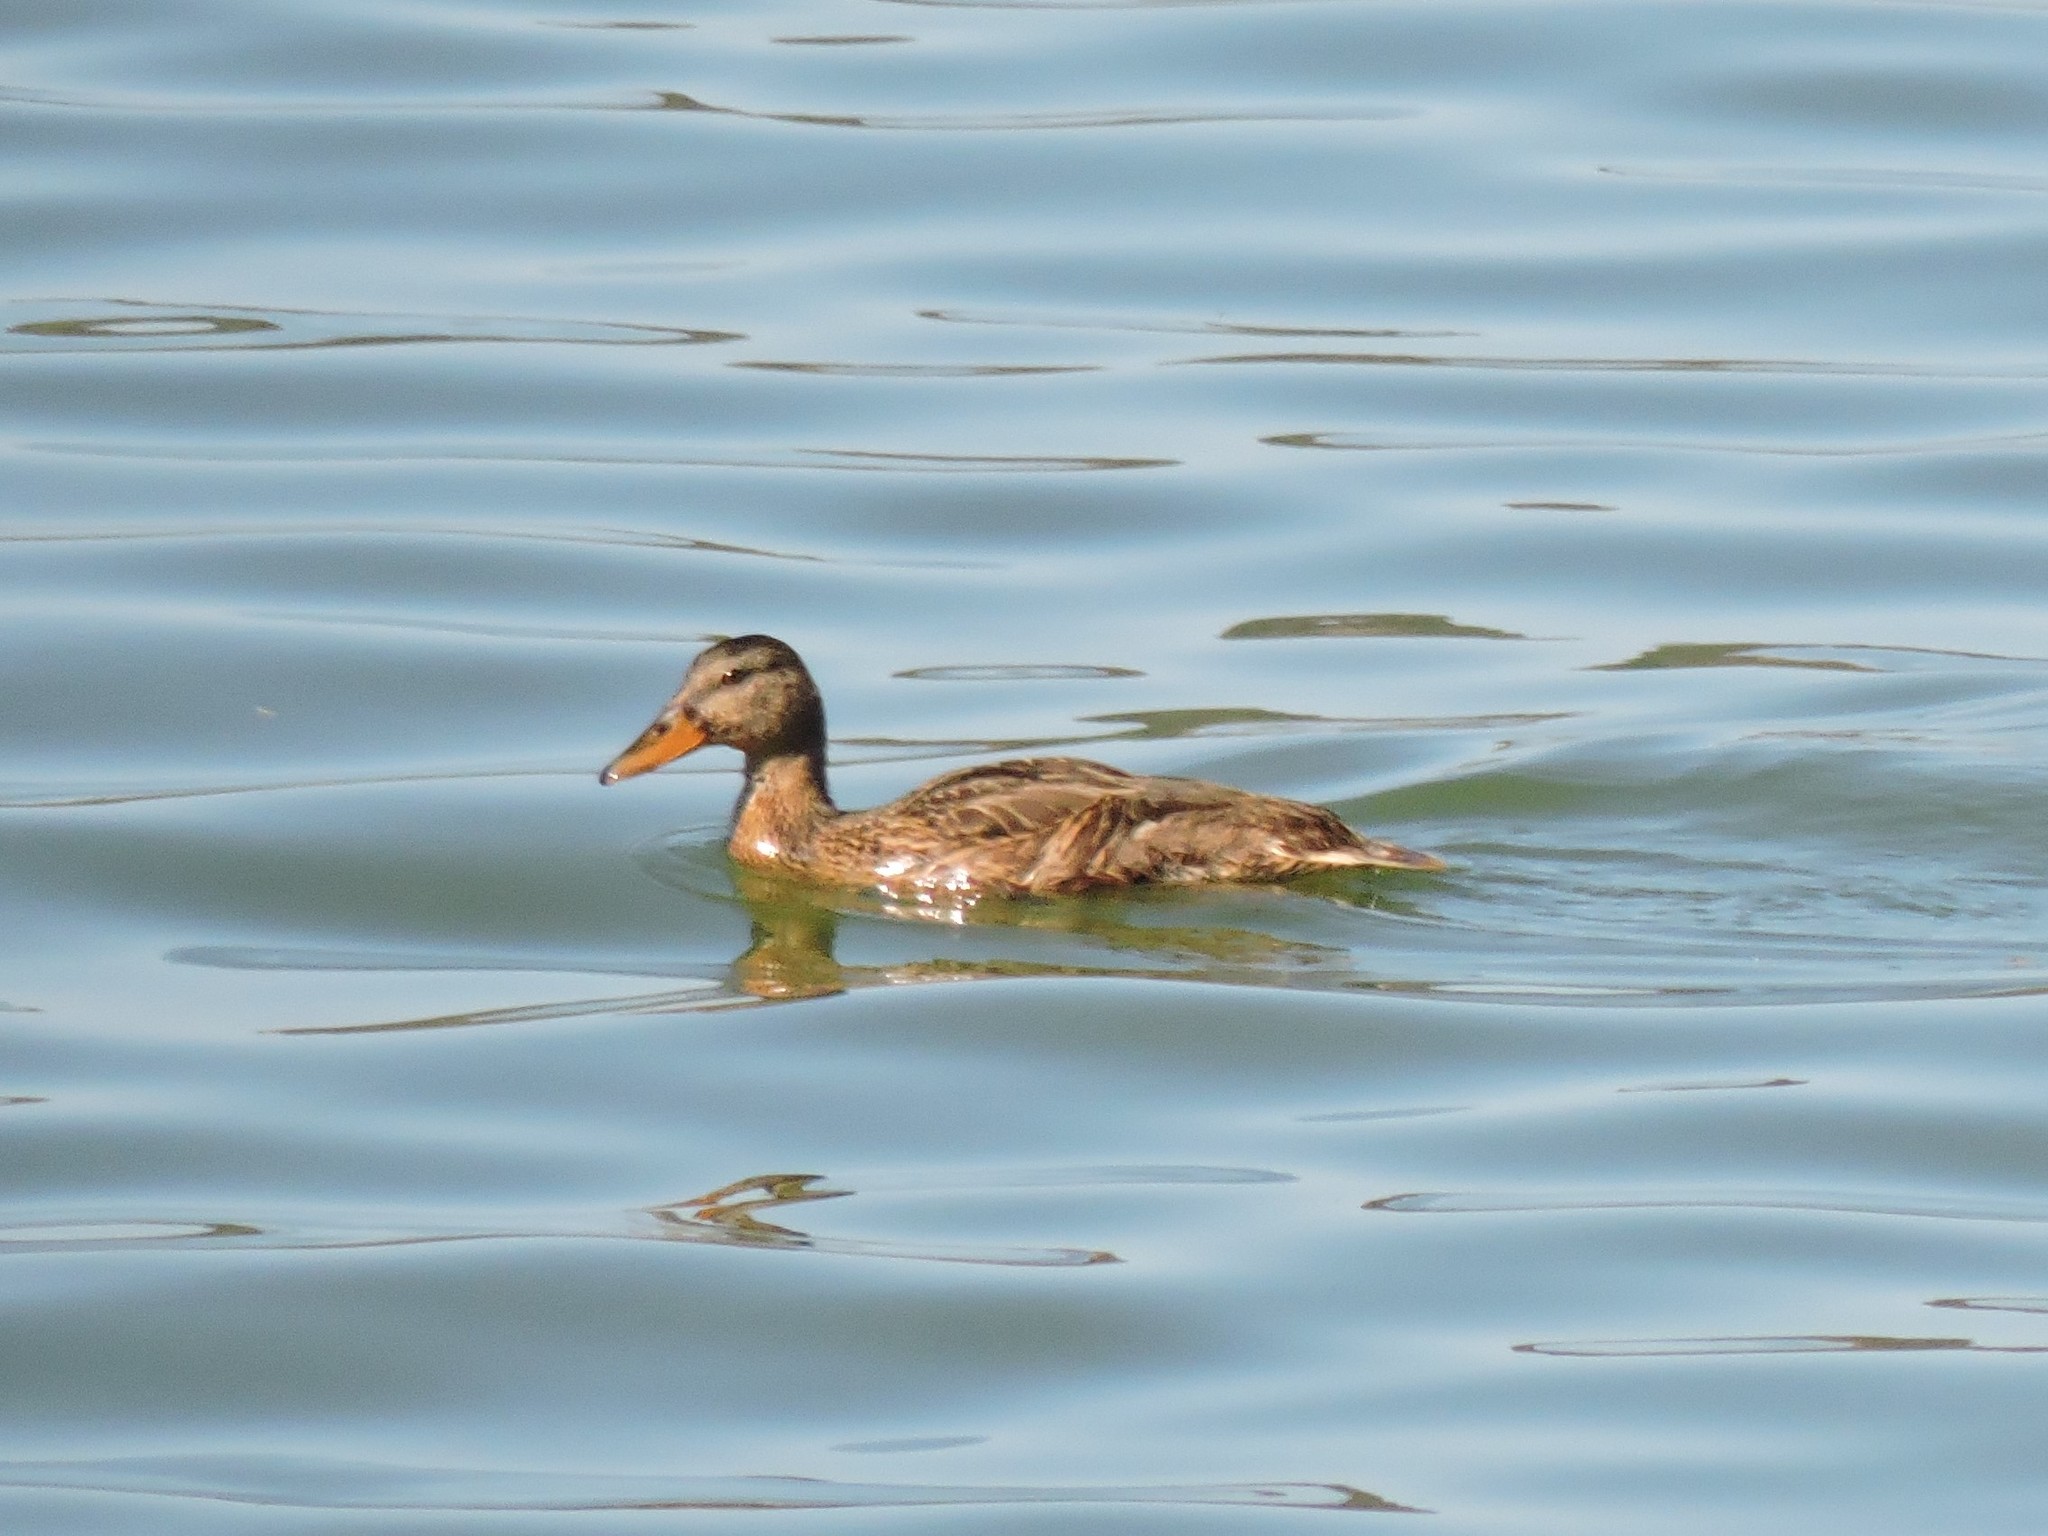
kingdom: Animalia
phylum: Chordata
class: Aves
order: Anseriformes
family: Anatidae
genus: Anas
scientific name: Anas platyrhynchos
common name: Mallard
